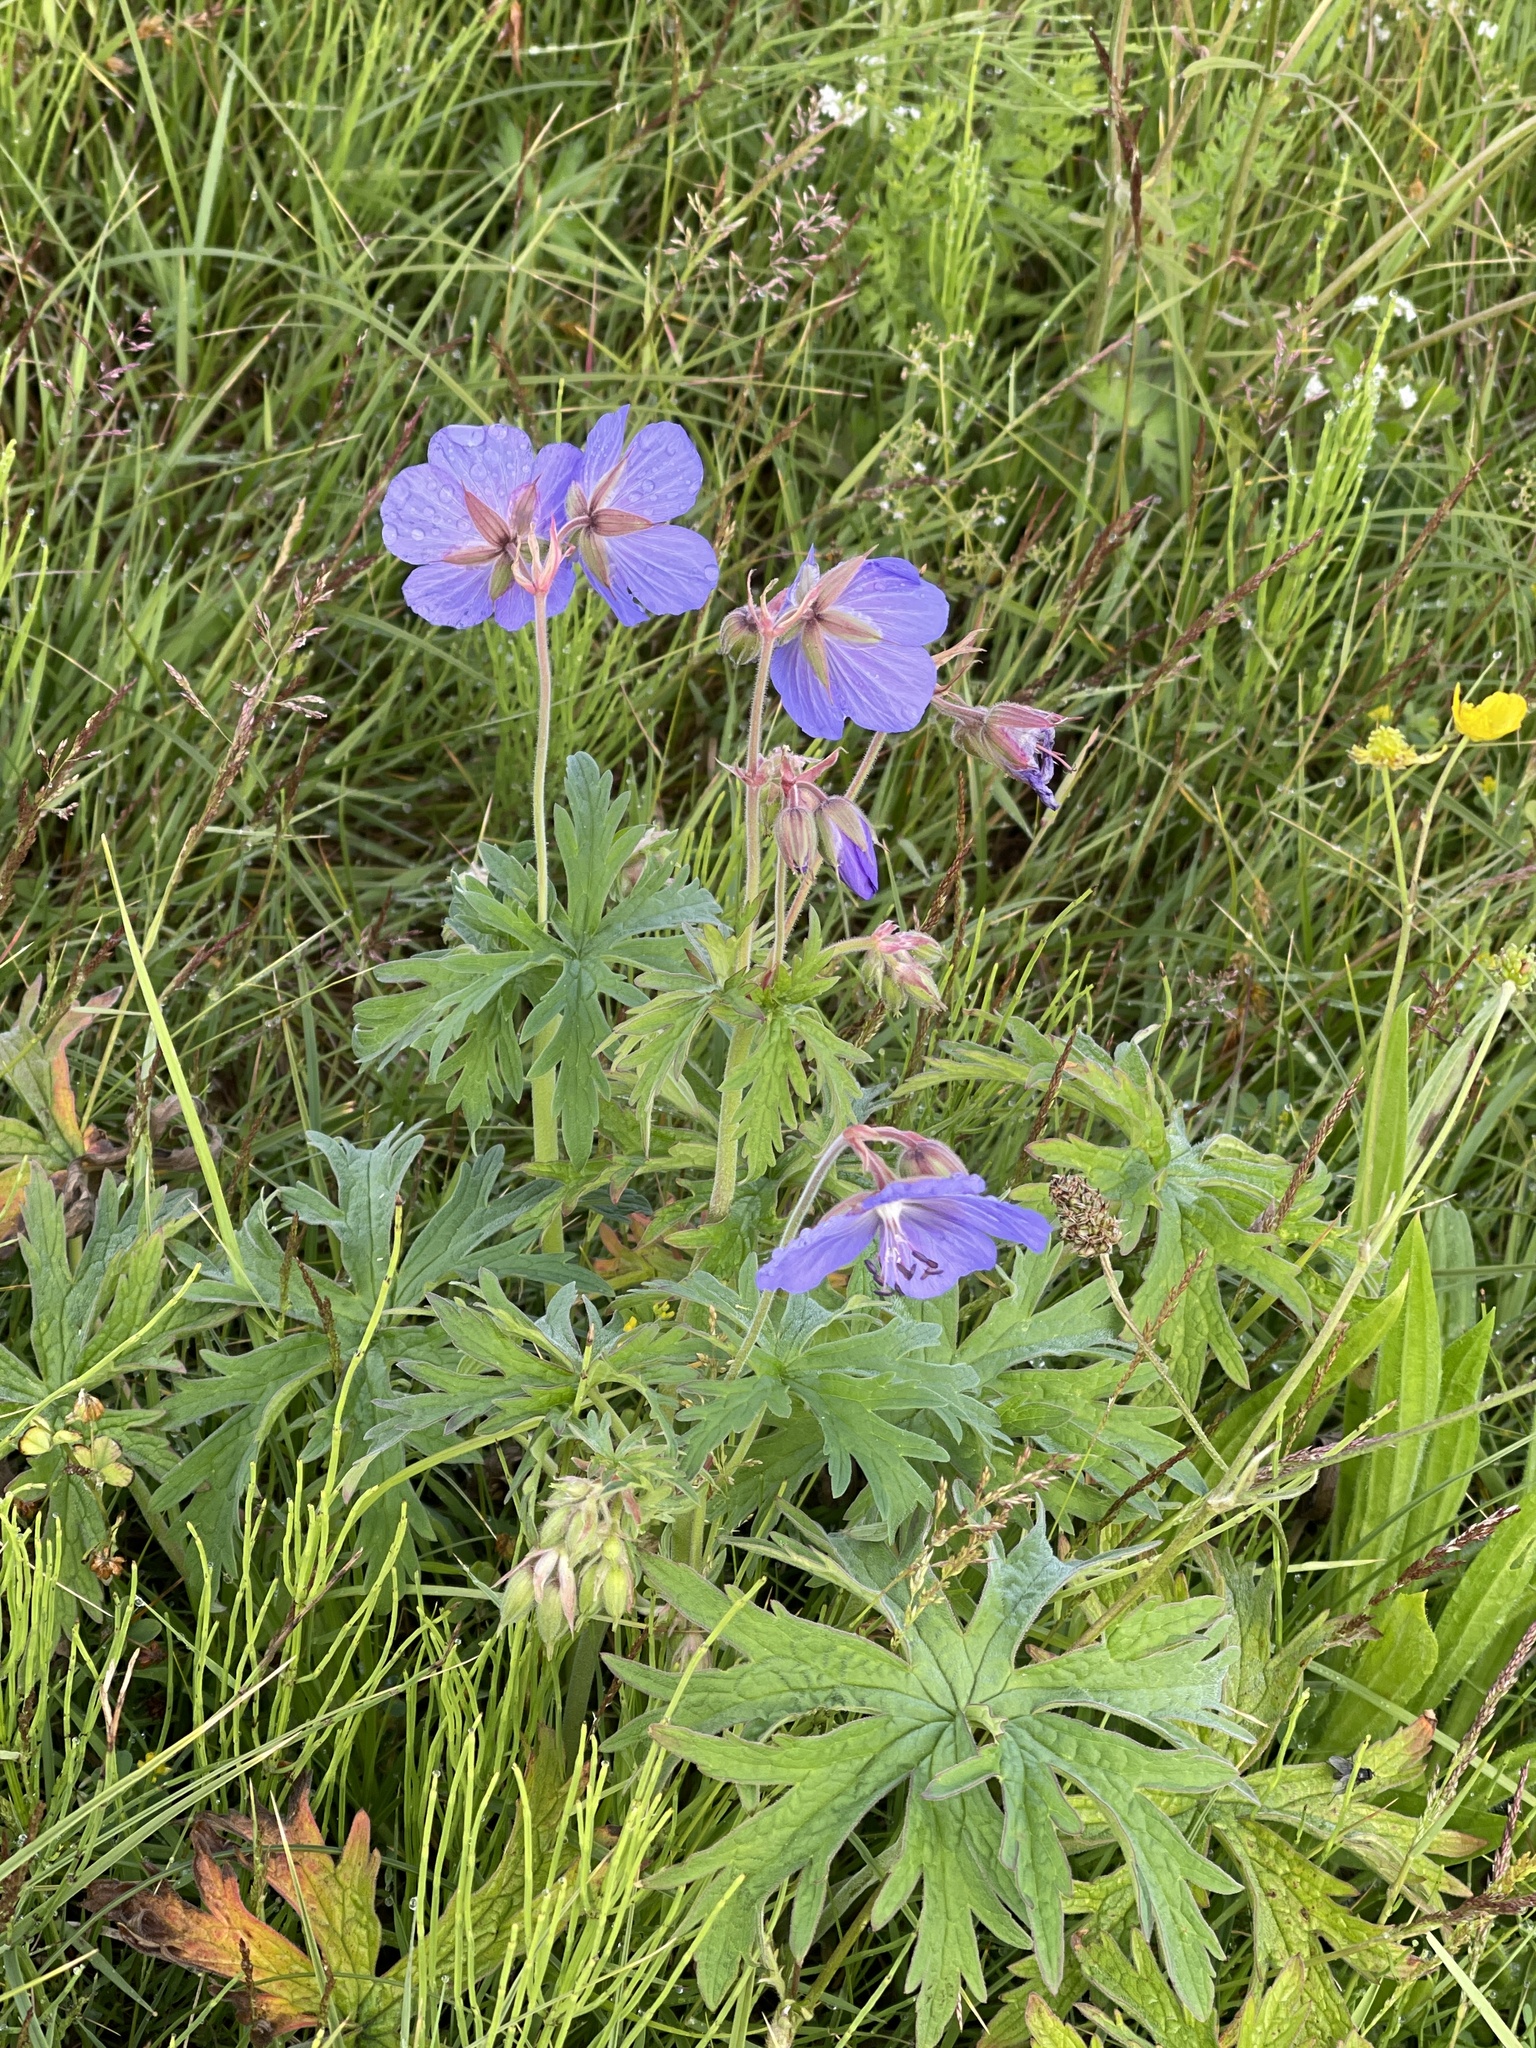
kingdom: Plantae
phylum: Tracheophyta
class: Magnoliopsida
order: Geraniales
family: Geraniaceae
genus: Geranium
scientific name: Geranium pratense
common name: Meadow crane's-bill
